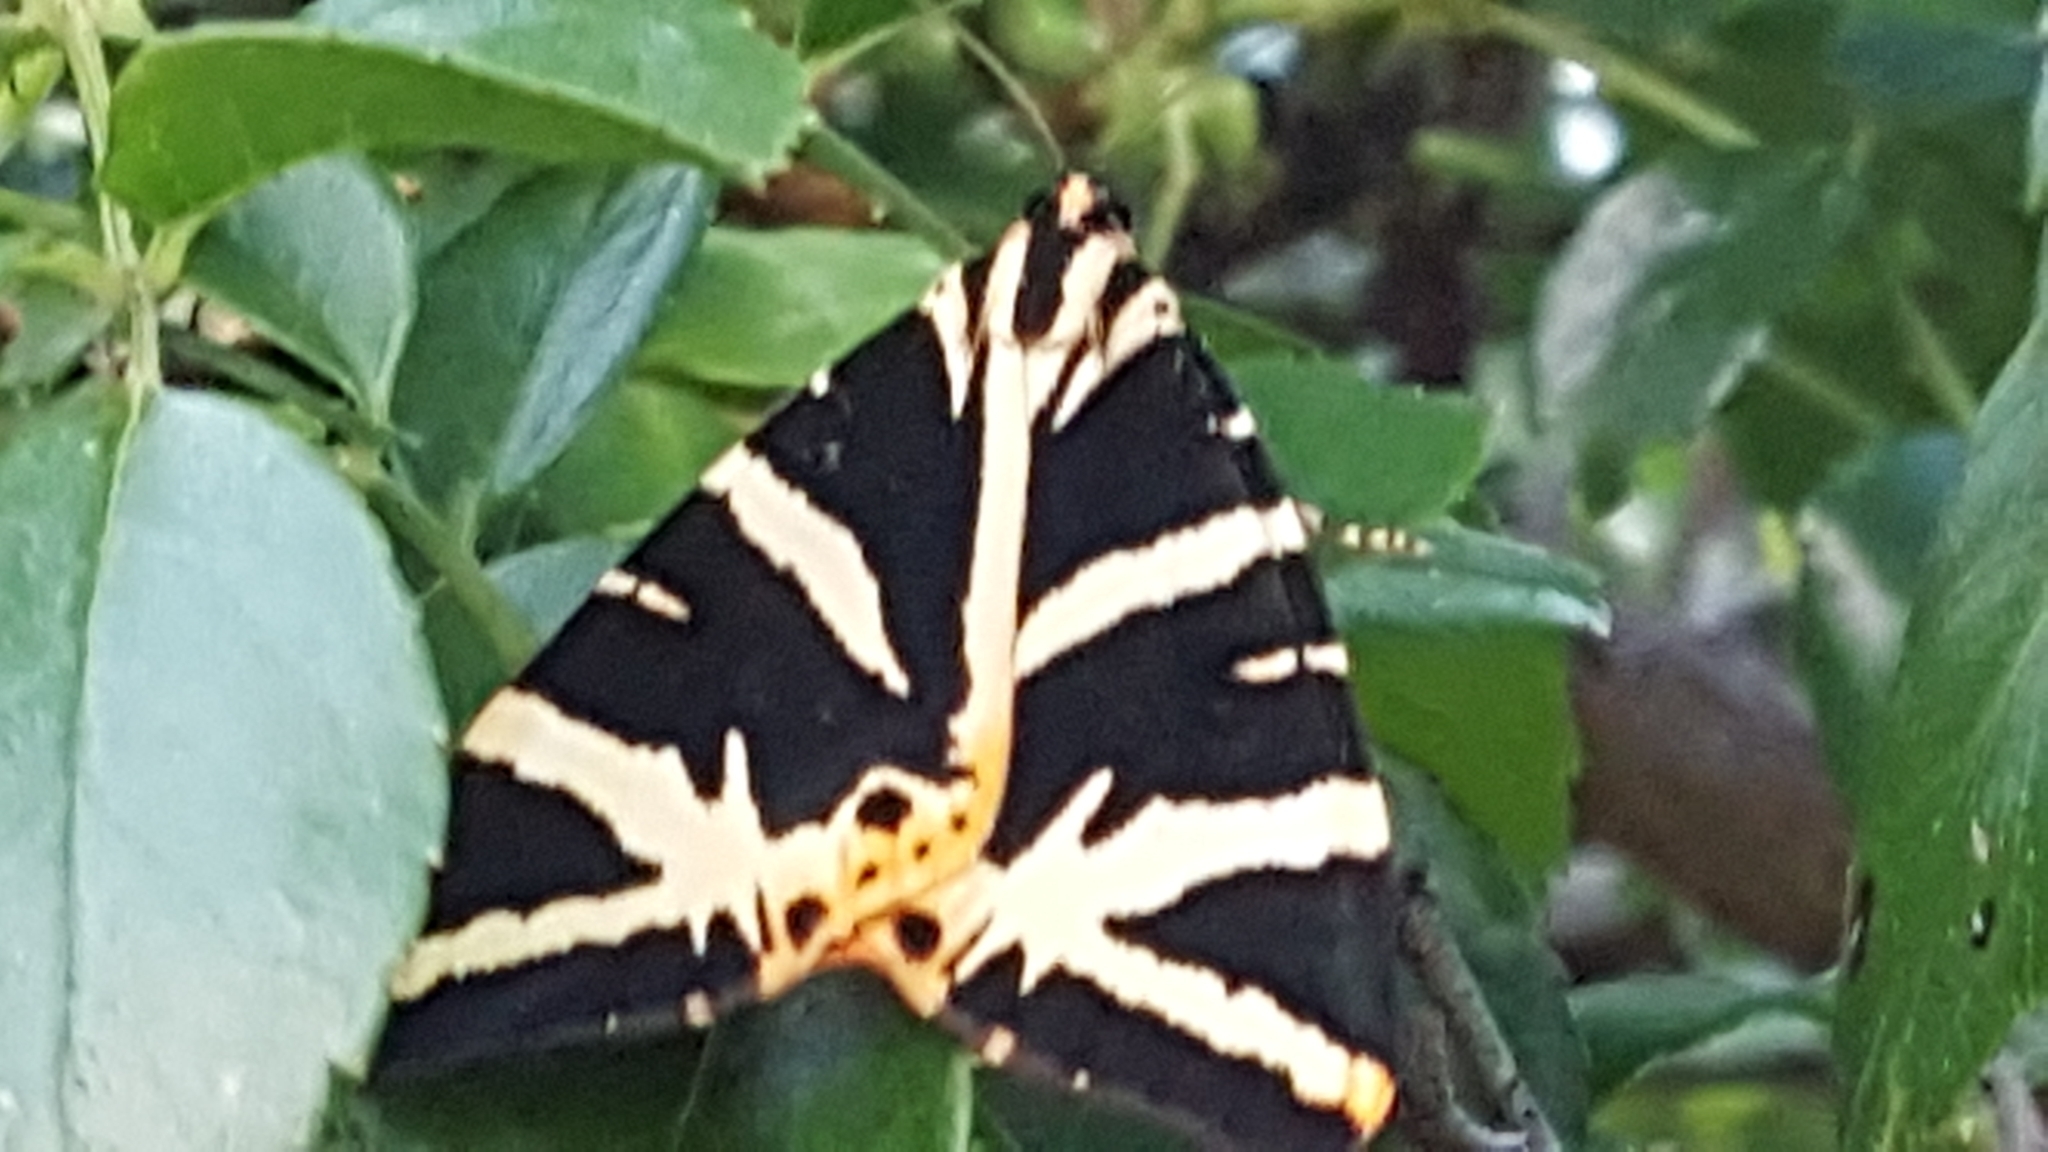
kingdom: Animalia
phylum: Arthropoda
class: Insecta
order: Lepidoptera
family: Erebidae
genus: Euplagia
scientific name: Euplagia quadripunctaria
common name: Jersey tiger
